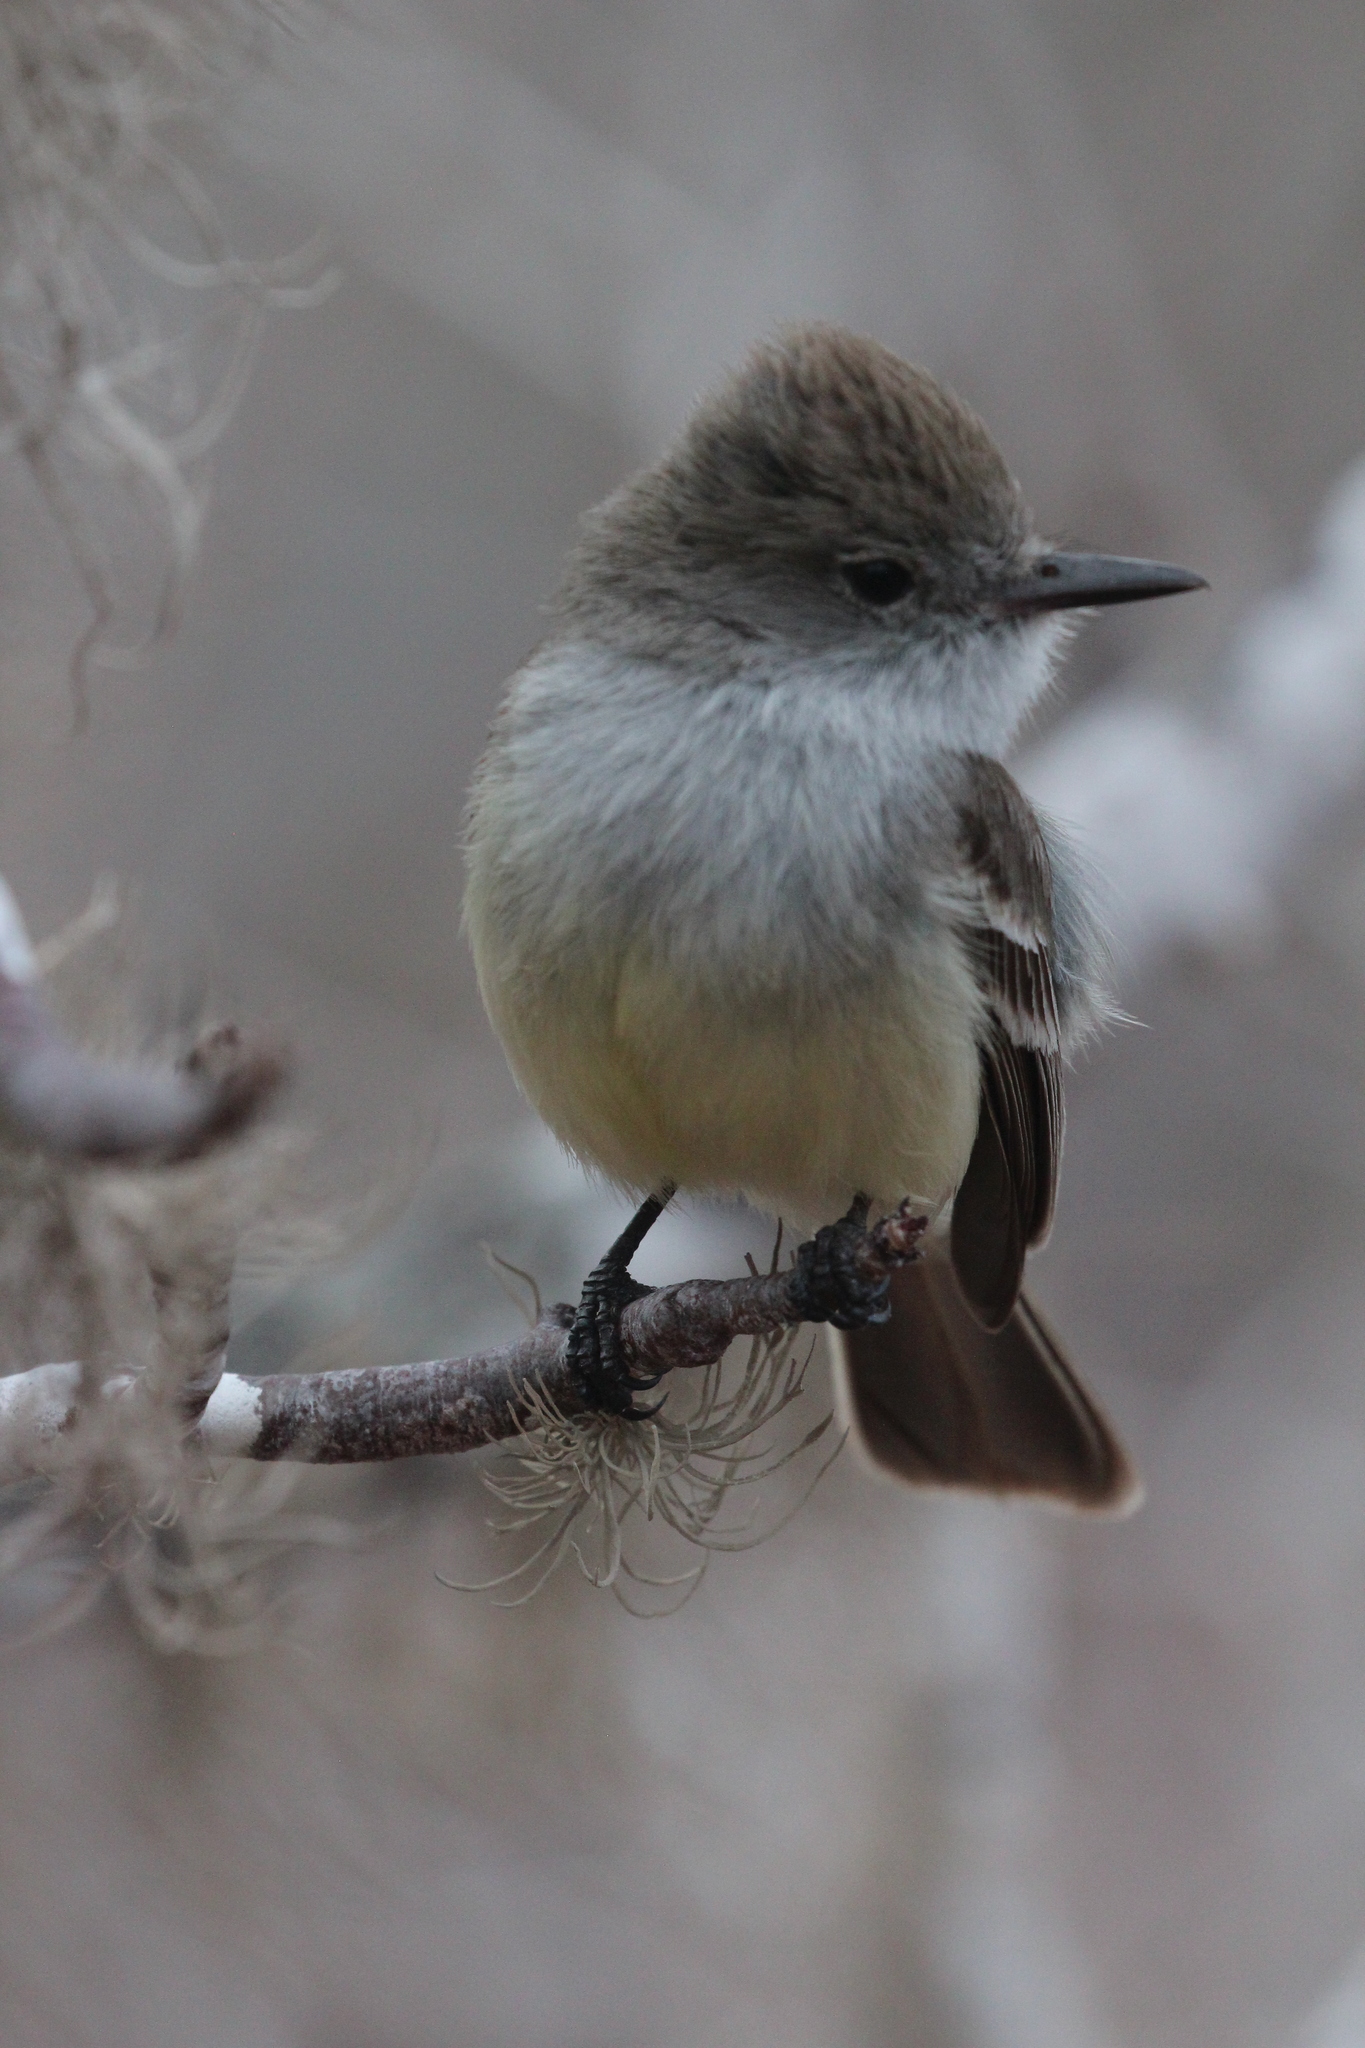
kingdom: Animalia
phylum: Chordata
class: Aves
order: Passeriformes
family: Tyrannidae
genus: Myiarchus
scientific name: Myiarchus magnirostris
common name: Galapagos flycatcher
